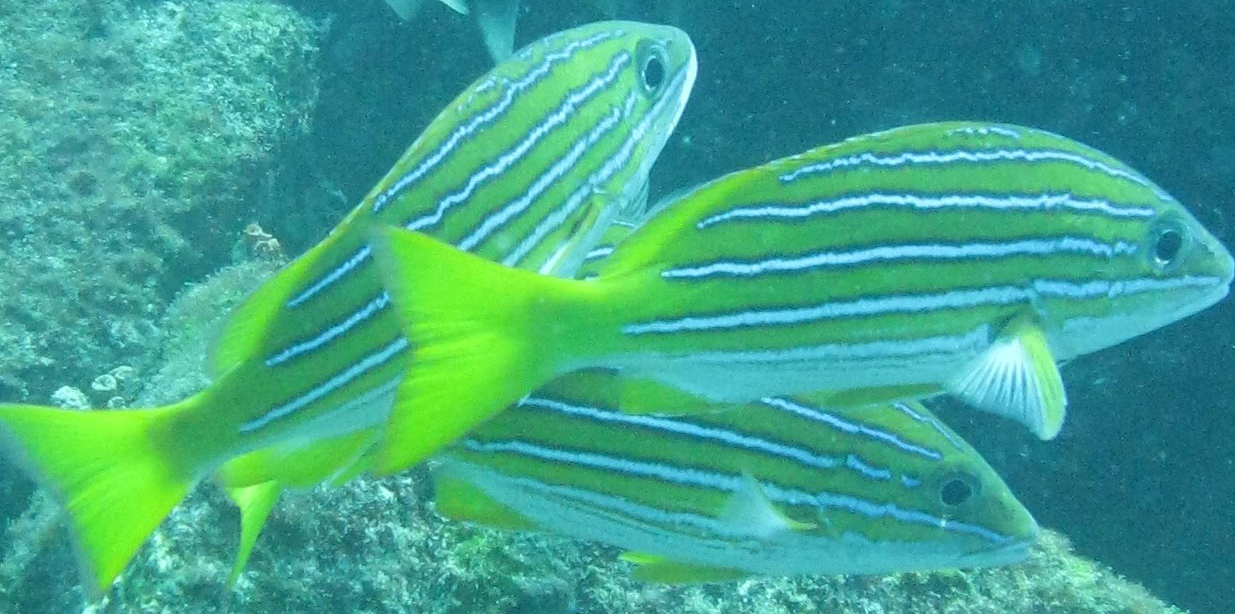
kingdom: Animalia
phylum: Chordata
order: Perciformes
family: Lutjanidae
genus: Lutjanus
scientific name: Lutjanus viridis
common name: Blue and gold snapper
